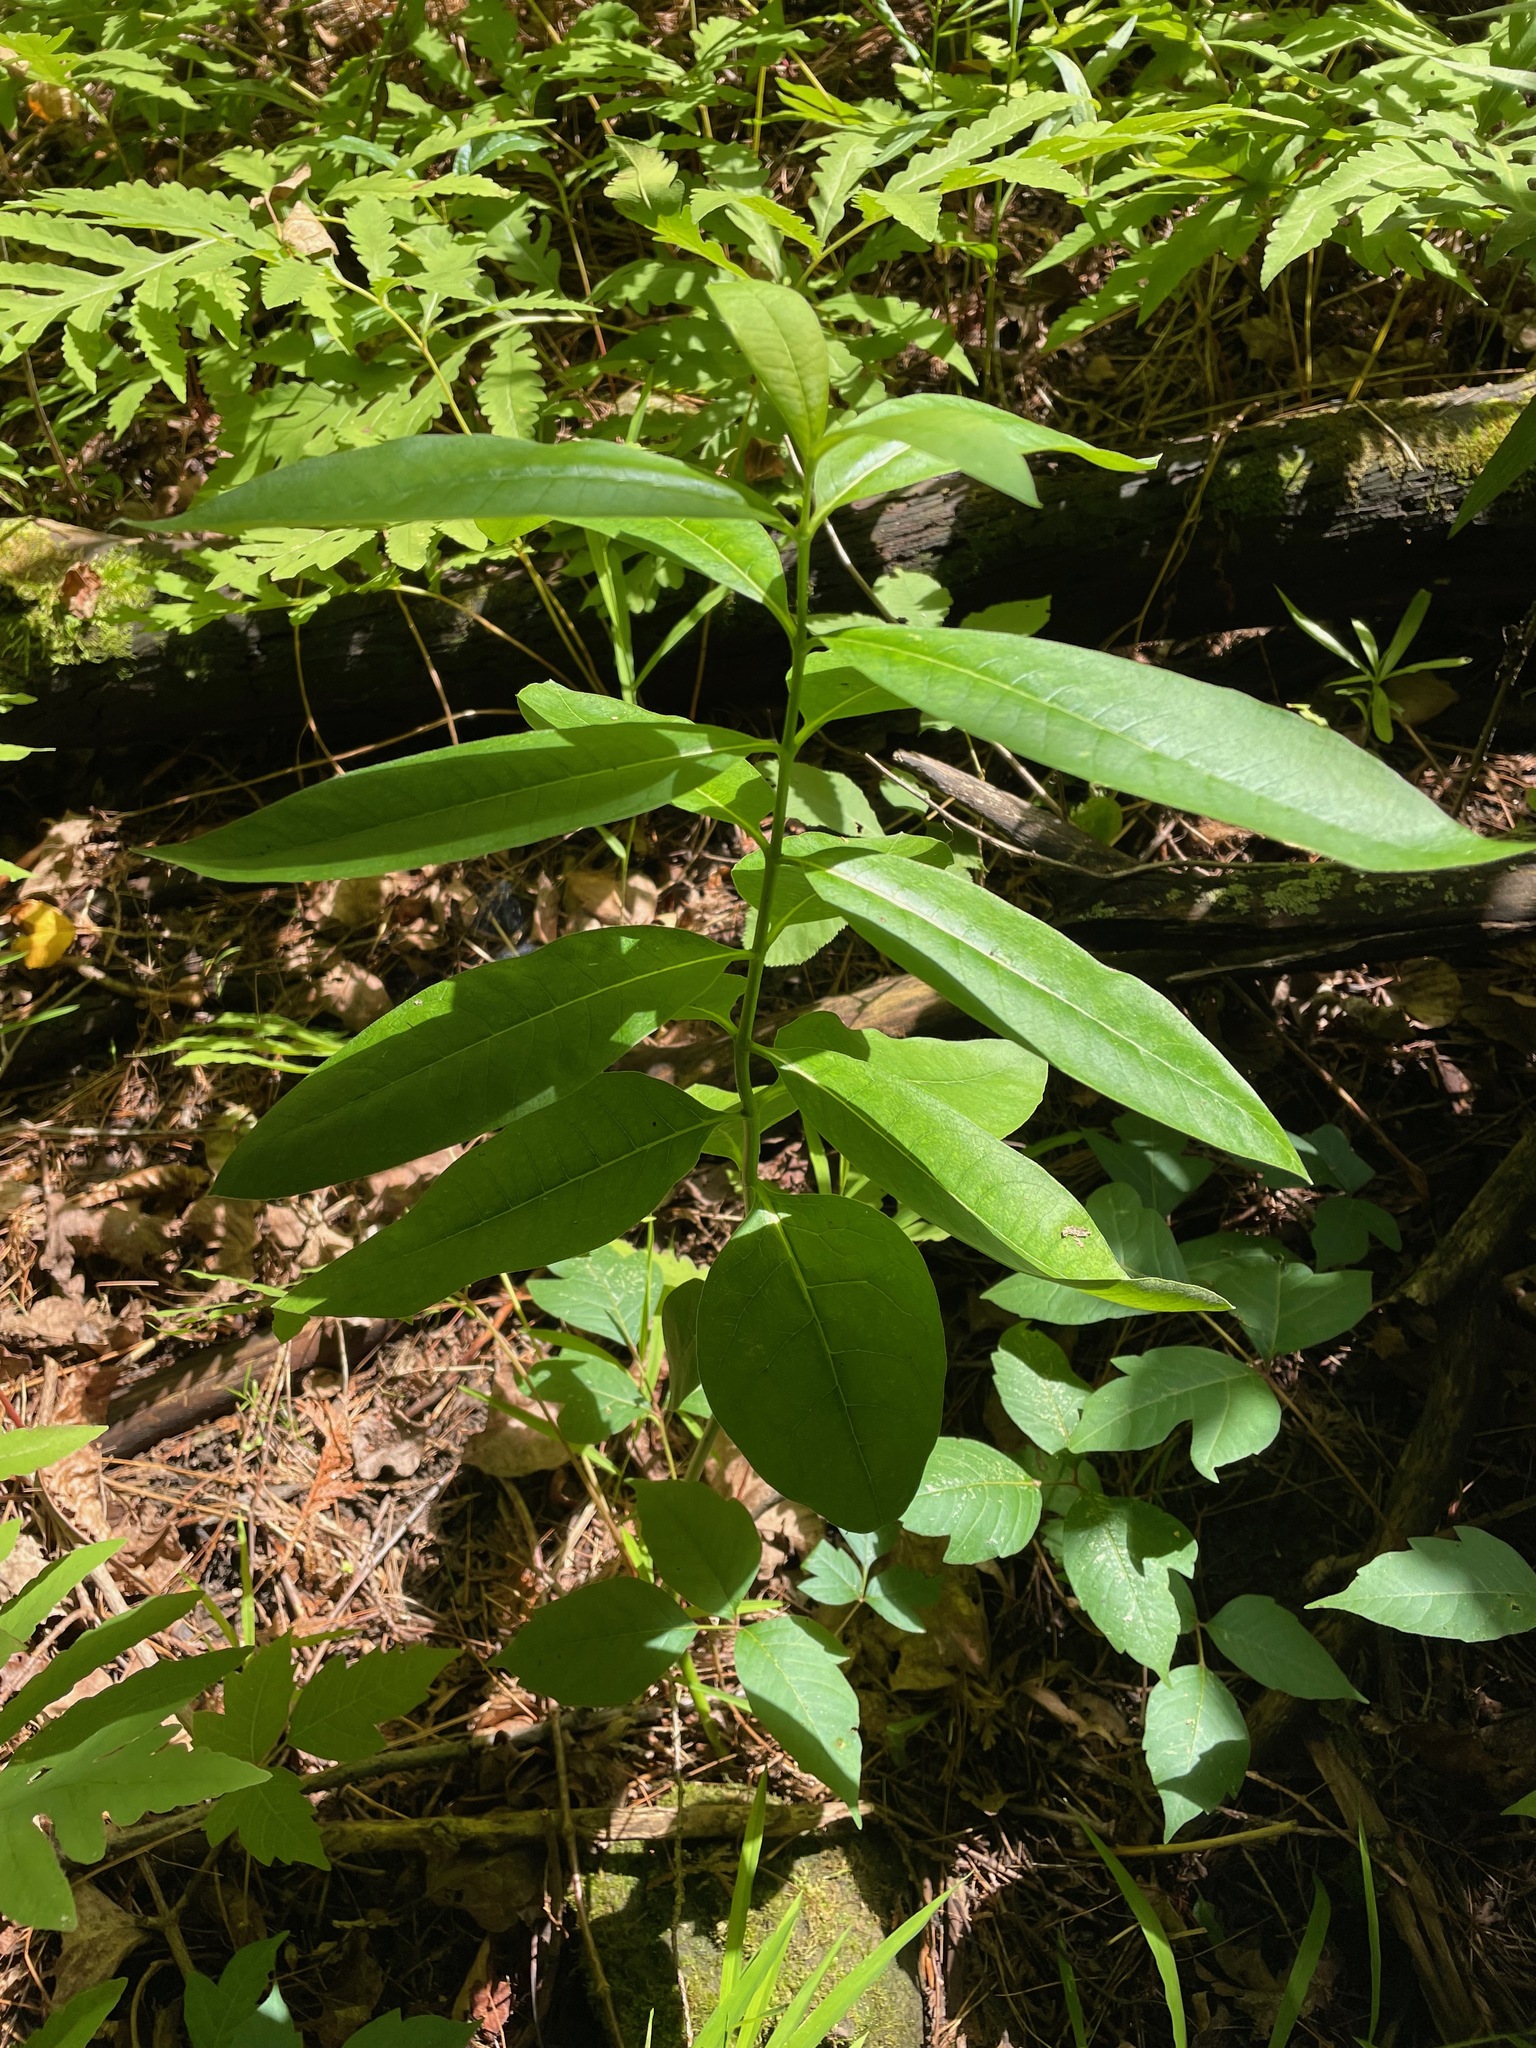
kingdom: Plantae
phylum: Tracheophyta
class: Magnoliopsida
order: Gentianales
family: Apocynaceae
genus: Asclepias
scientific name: Asclepias syriaca
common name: Common milkweed
